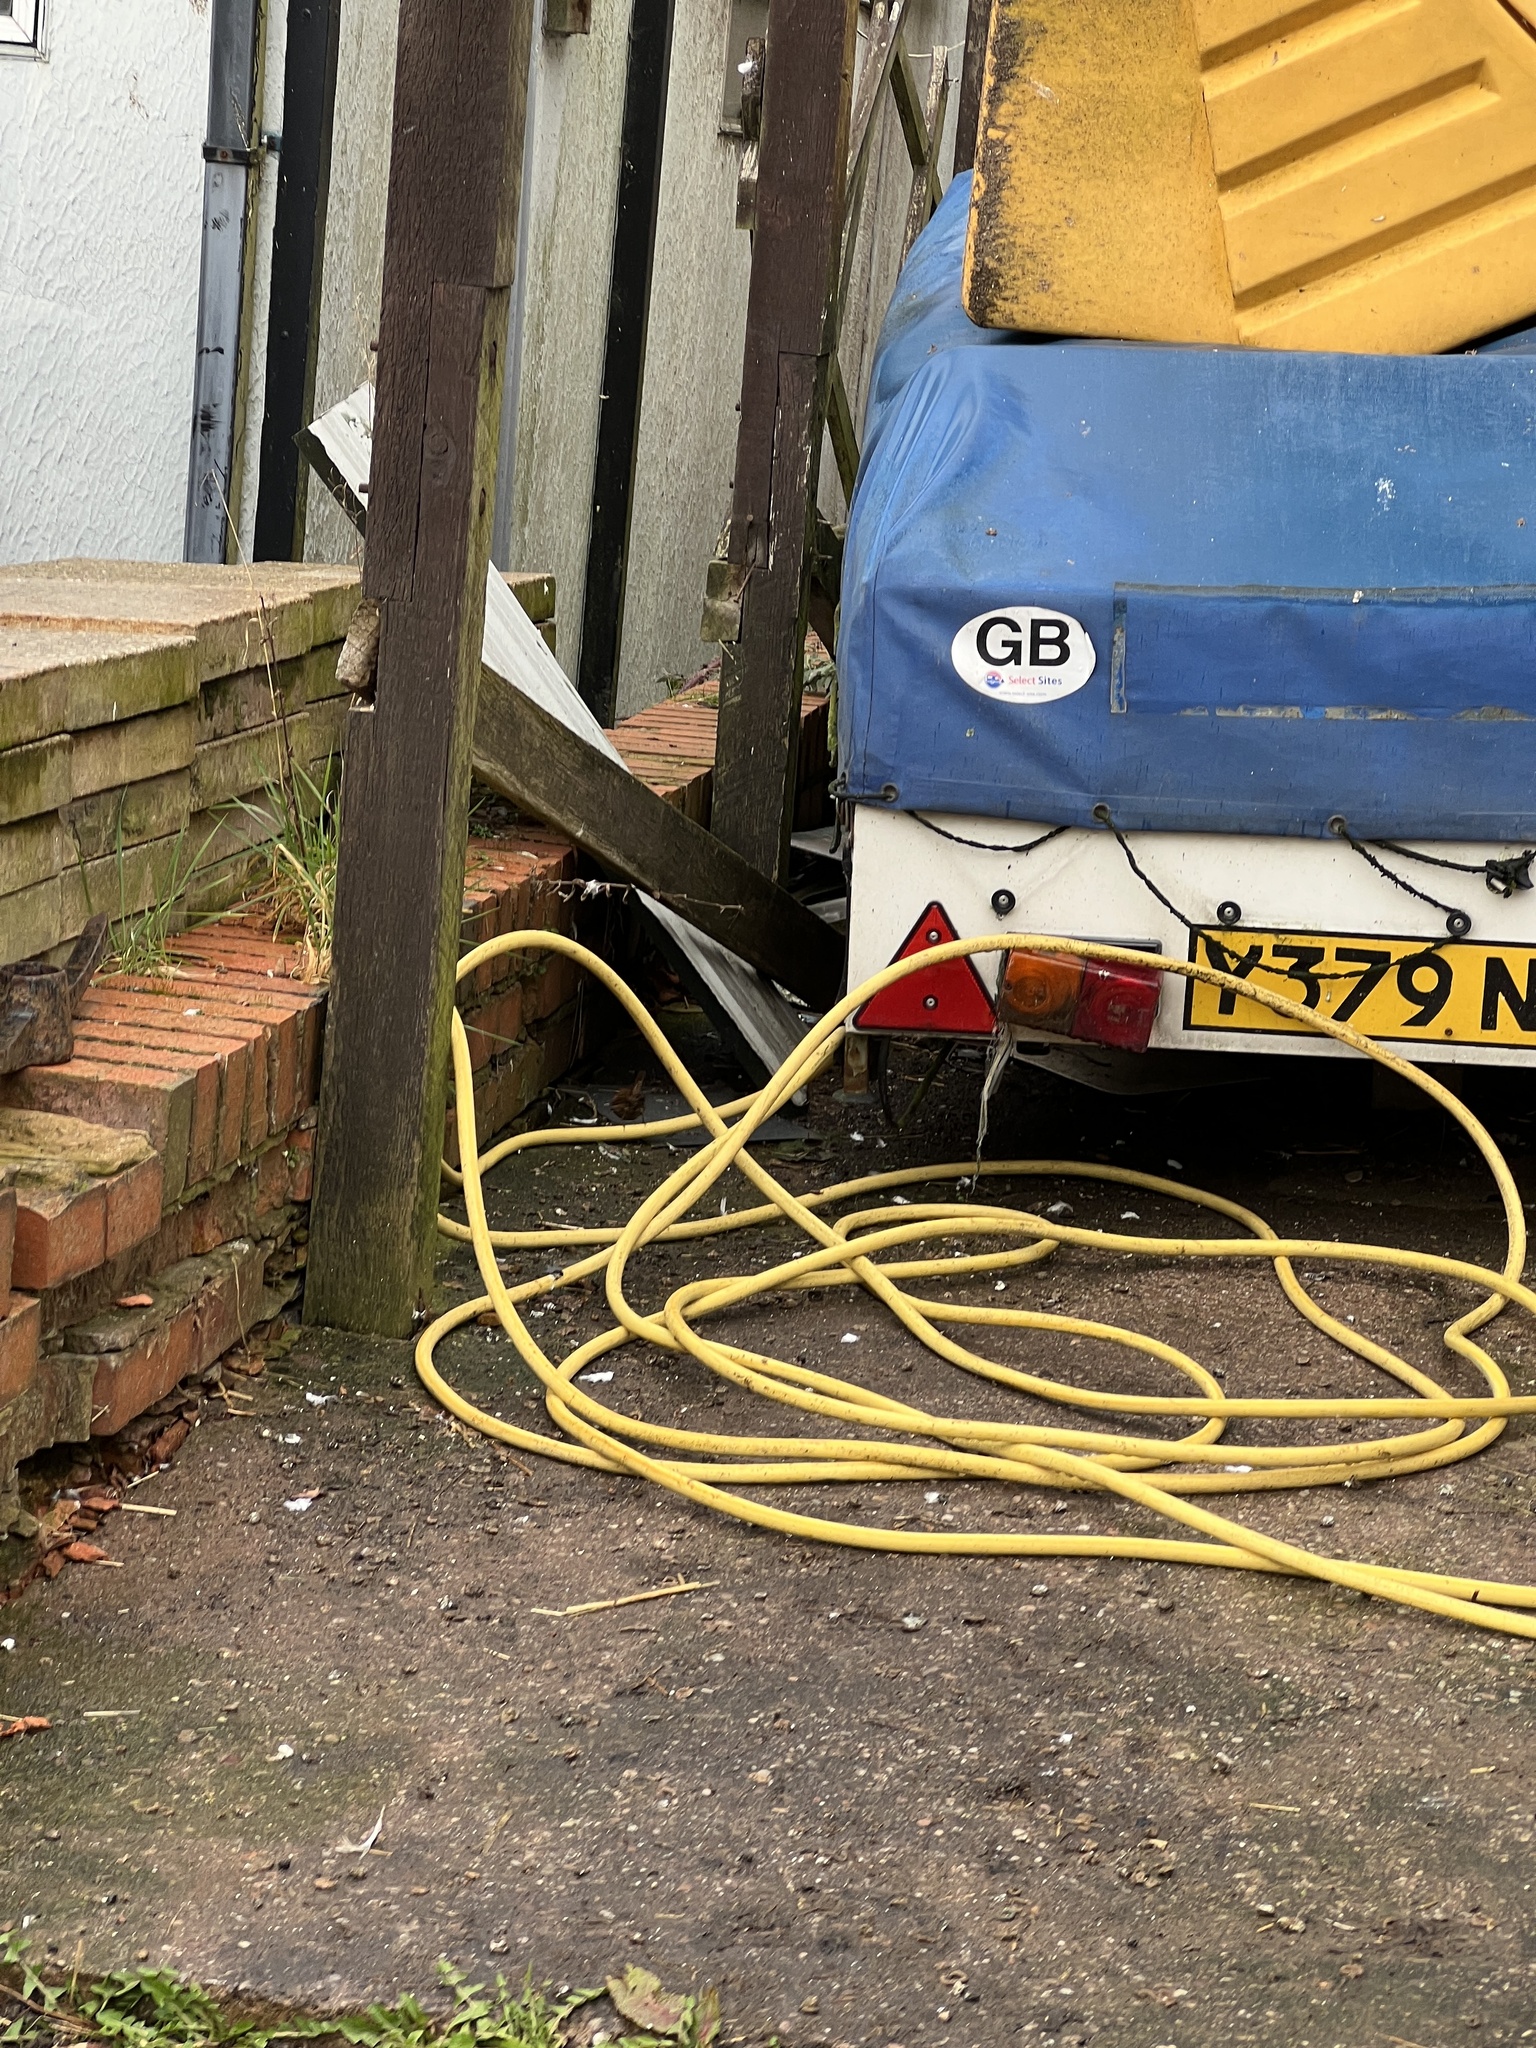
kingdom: Animalia
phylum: Chordata
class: Aves
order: Passeriformes
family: Troglodytidae
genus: Troglodytes
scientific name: Troglodytes troglodytes
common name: Eurasian wren
